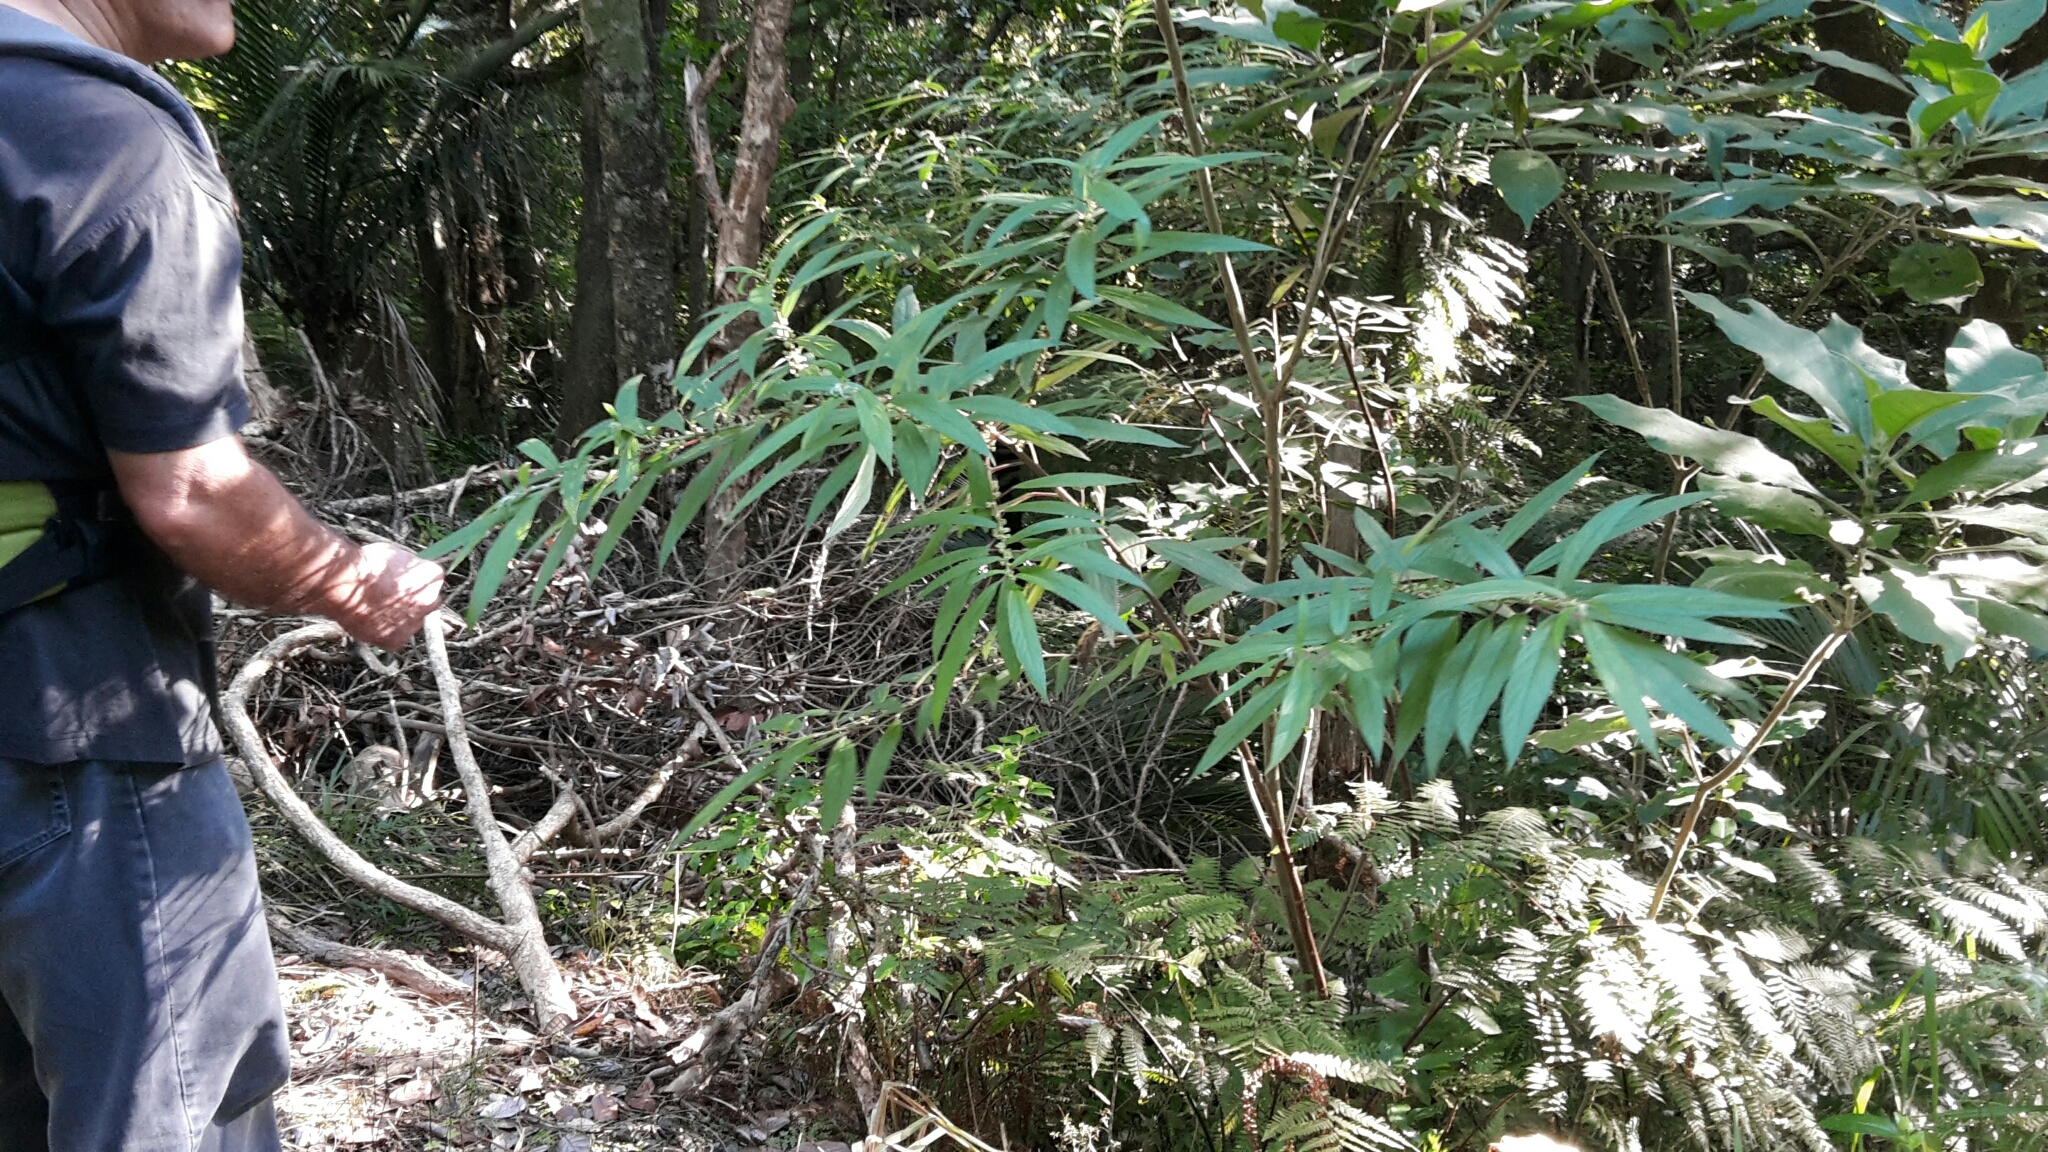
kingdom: Plantae
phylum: Tracheophyta
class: Magnoliopsida
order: Rosales
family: Urticaceae
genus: Debregeasia
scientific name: Debregeasia longifolia
